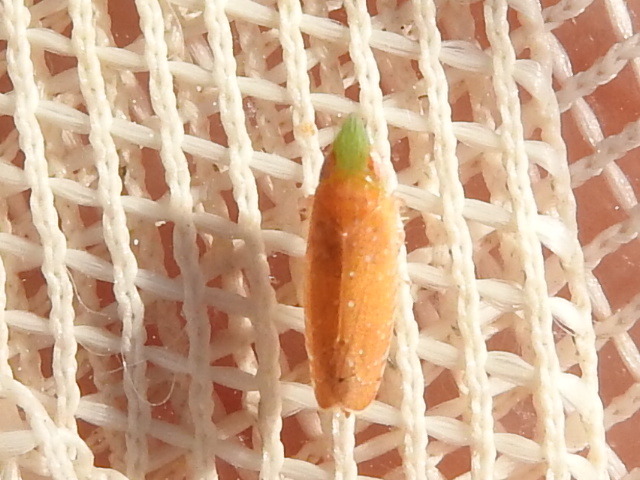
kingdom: Animalia
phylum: Arthropoda
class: Insecta
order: Hemiptera
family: Cicadellidae
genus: Scaphytopius
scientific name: Scaphytopius argutus
